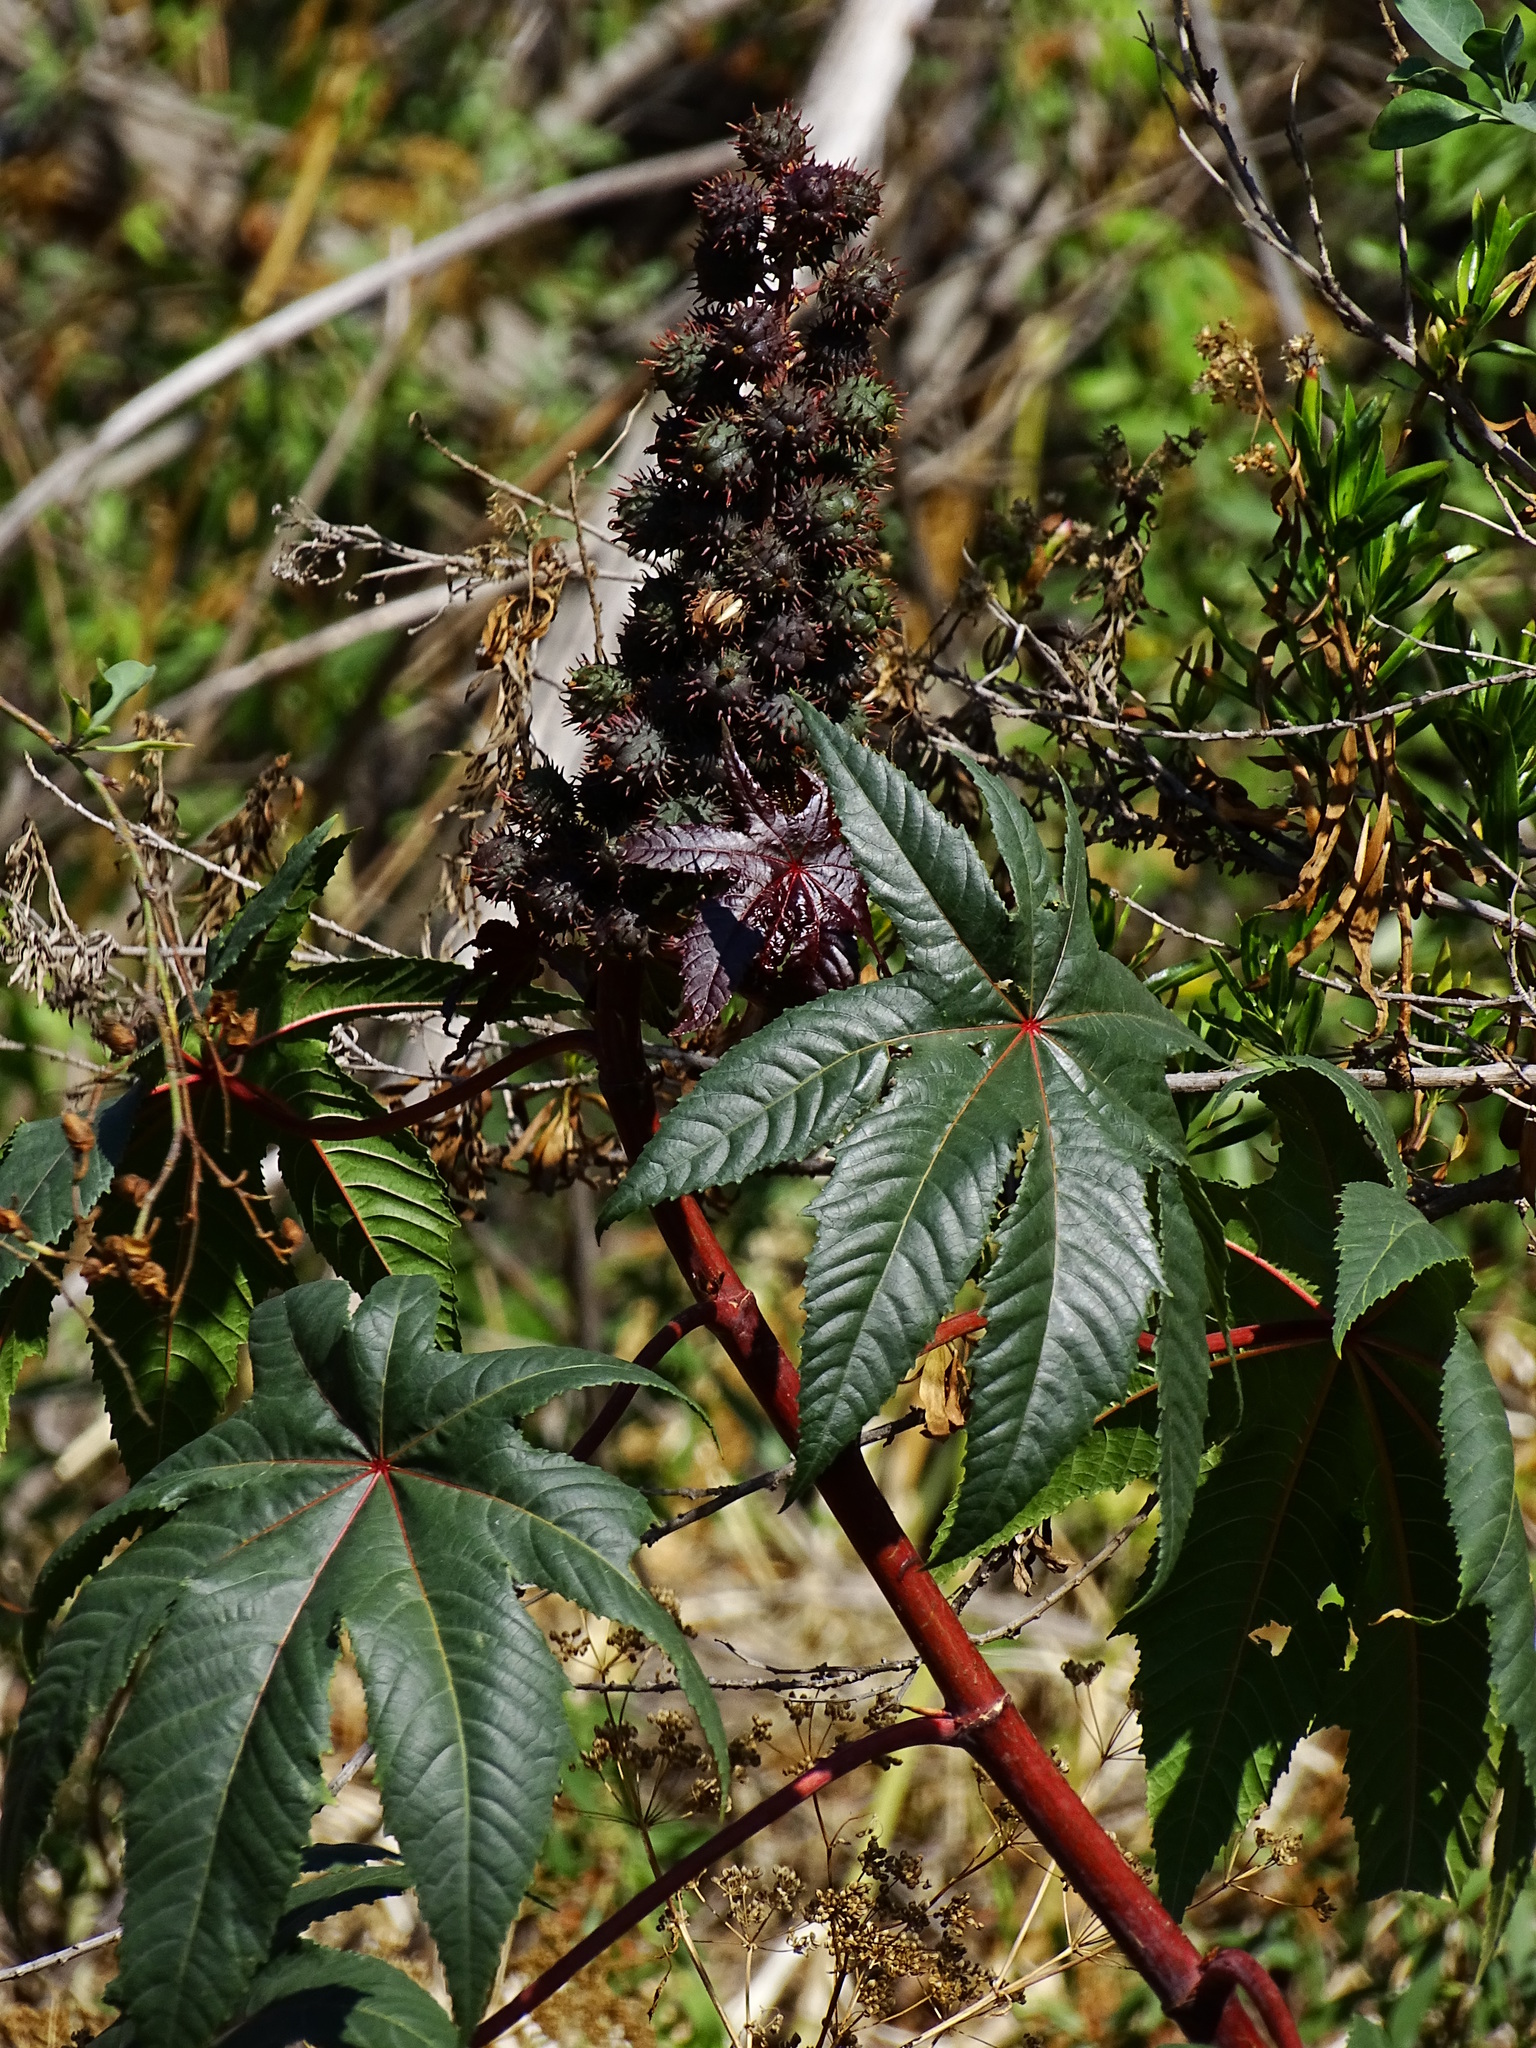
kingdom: Plantae
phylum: Tracheophyta
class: Magnoliopsida
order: Malpighiales
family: Euphorbiaceae
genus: Ricinus
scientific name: Ricinus communis
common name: Castor-oil-plant
